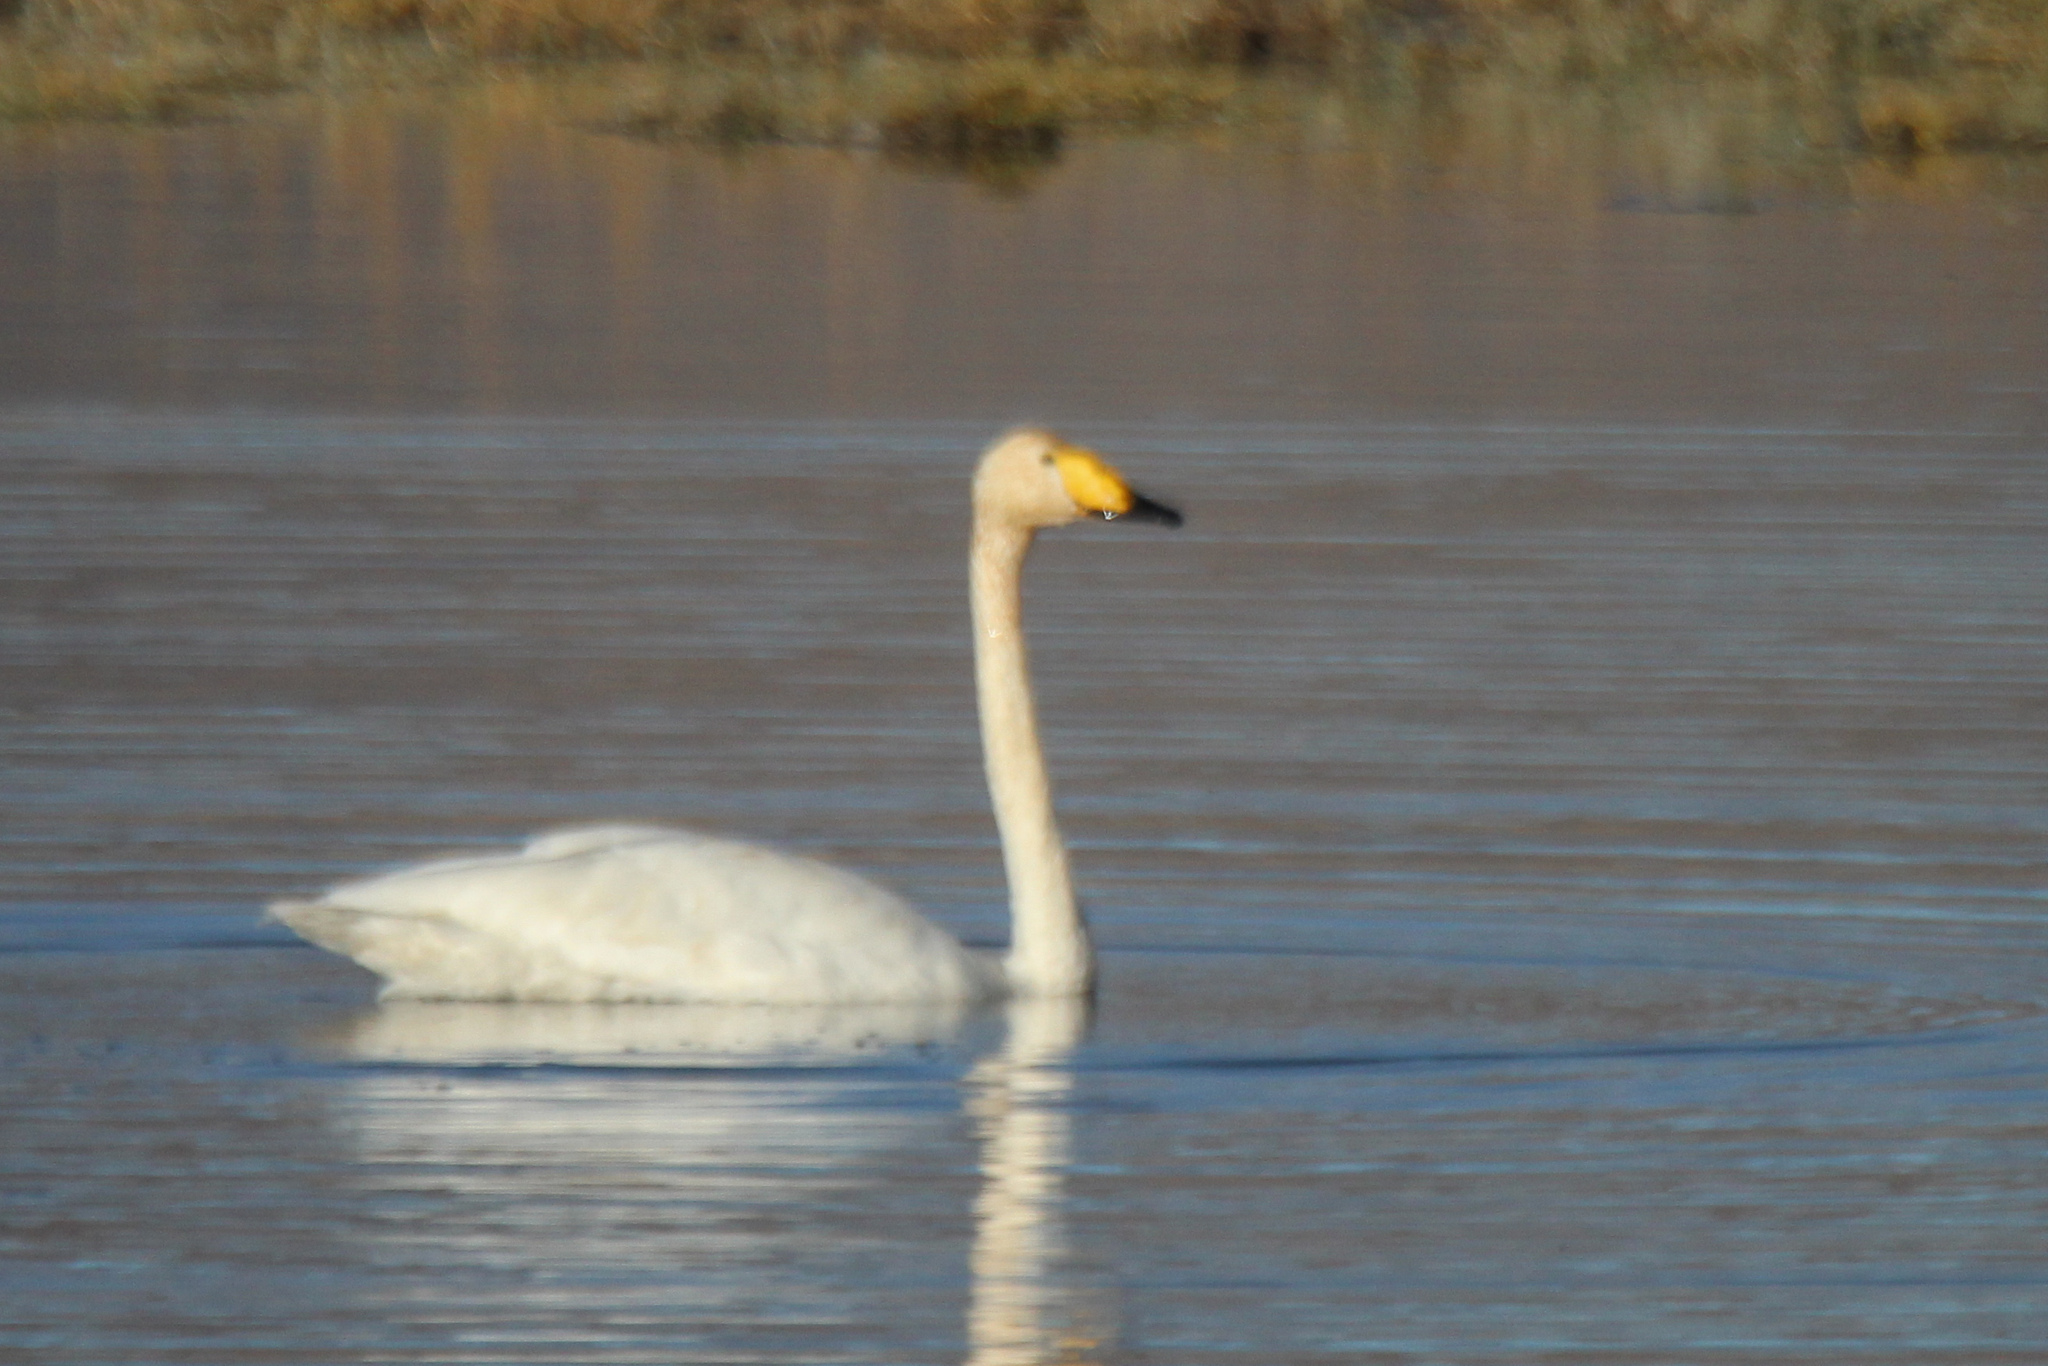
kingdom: Animalia
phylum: Chordata
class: Aves
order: Anseriformes
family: Anatidae
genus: Cygnus
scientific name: Cygnus cygnus
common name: Whooper swan
